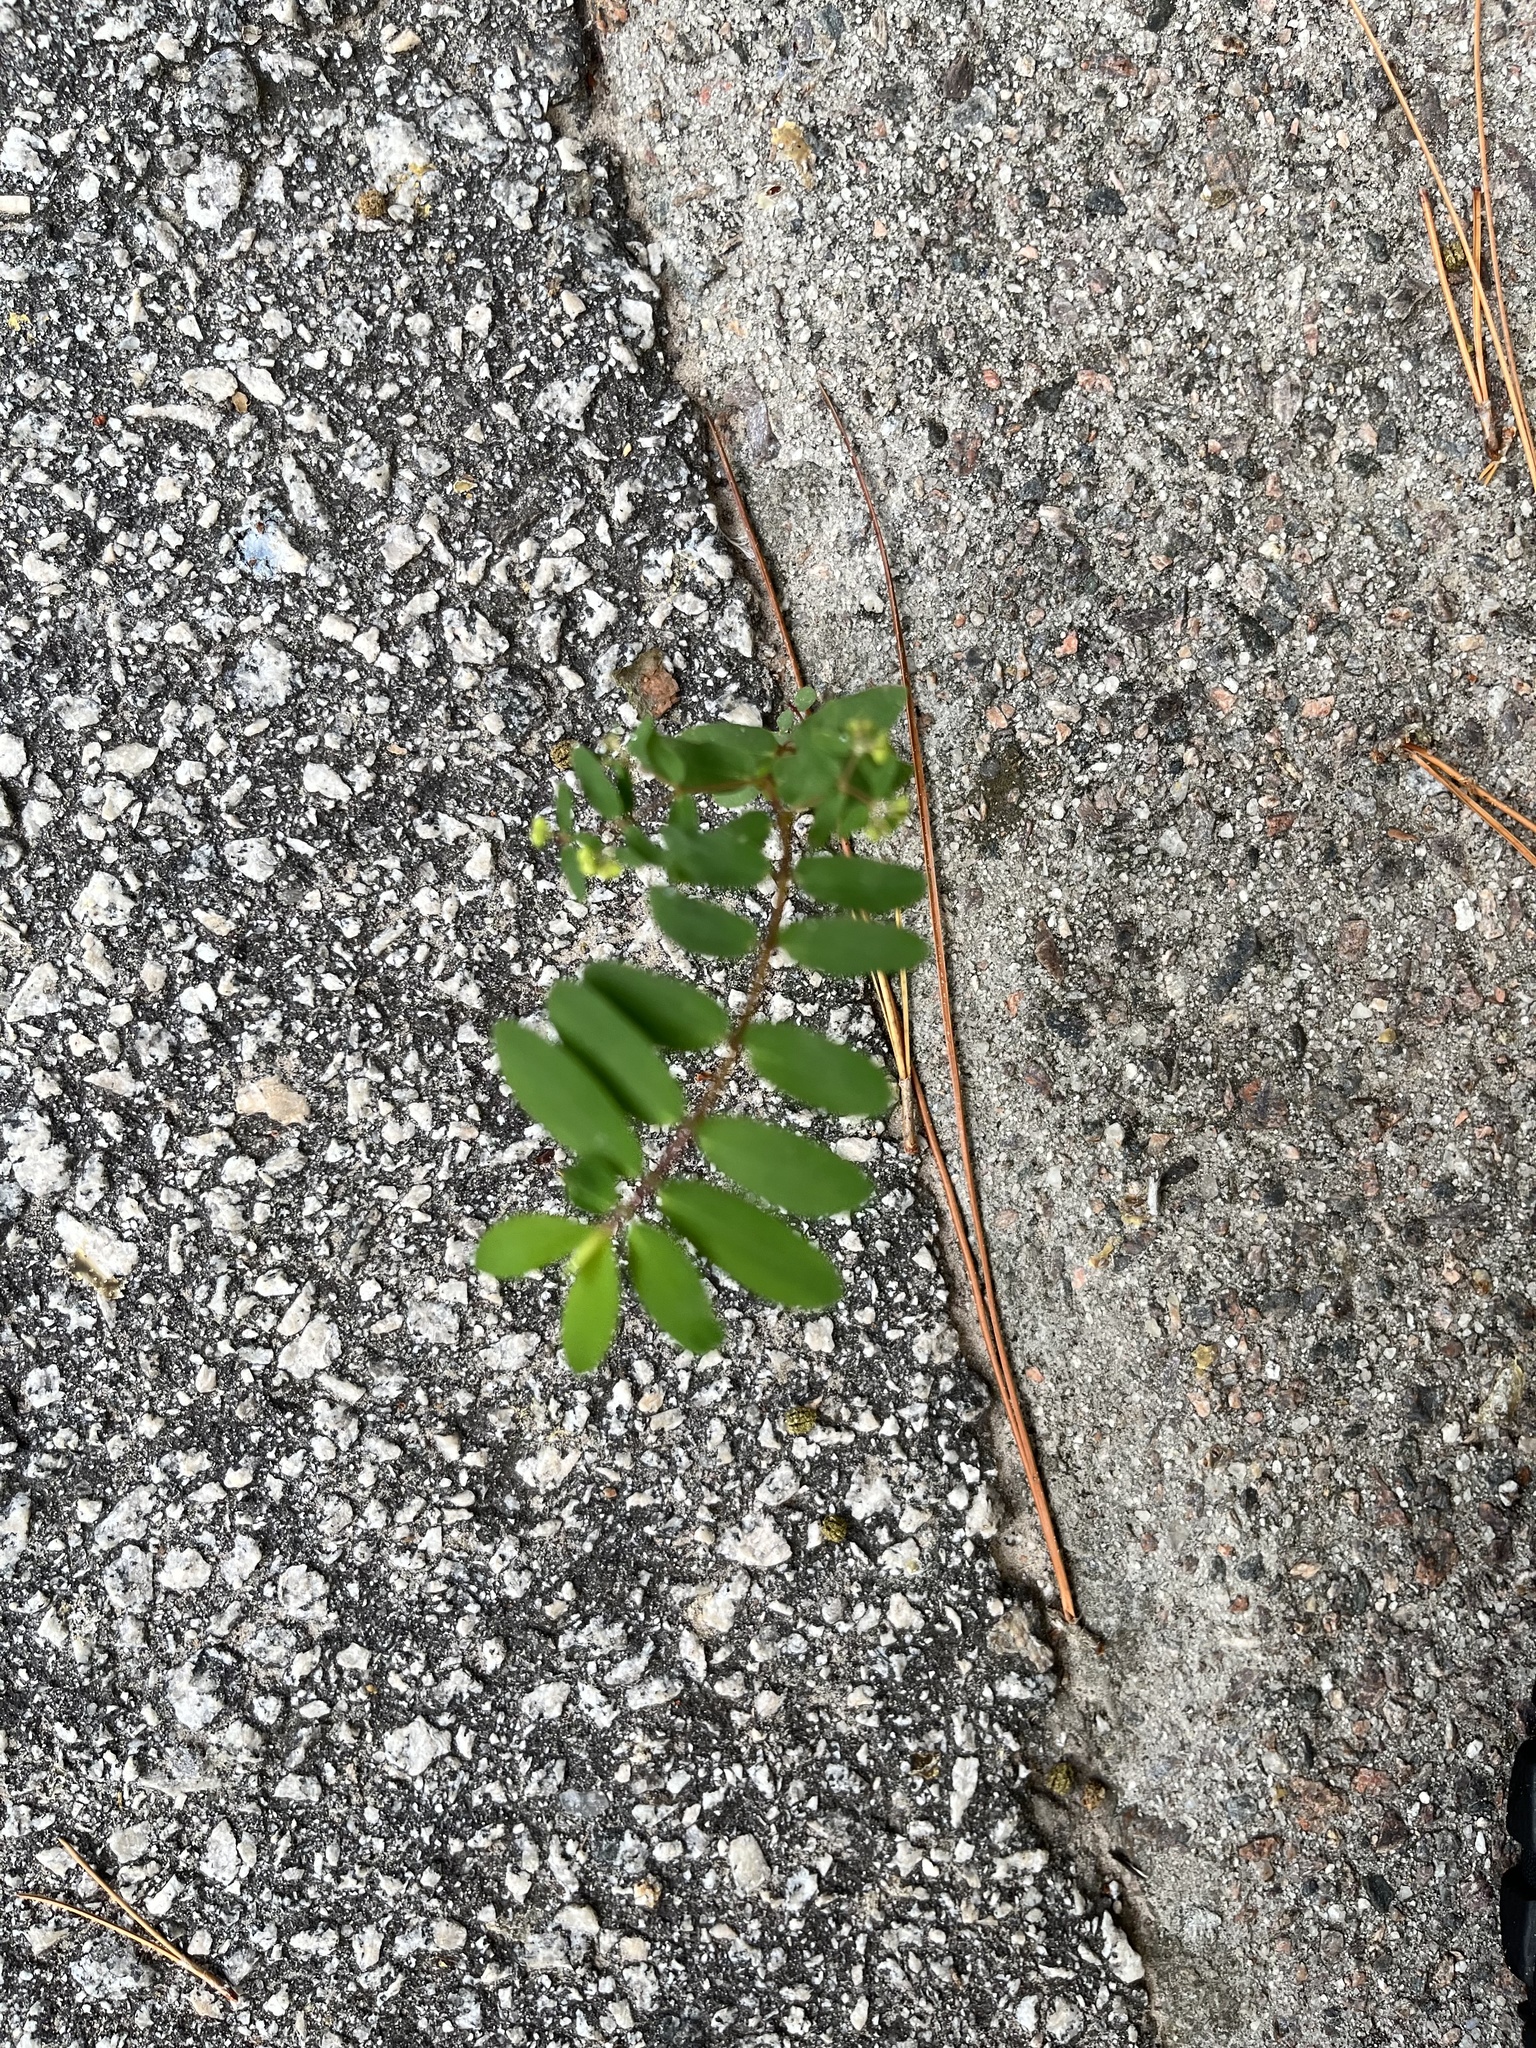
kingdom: Plantae
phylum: Tracheophyta
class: Magnoliopsida
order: Malpighiales
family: Euphorbiaceae
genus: Euphorbia
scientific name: Euphorbia hypericifolia
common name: Graceful sandmat
